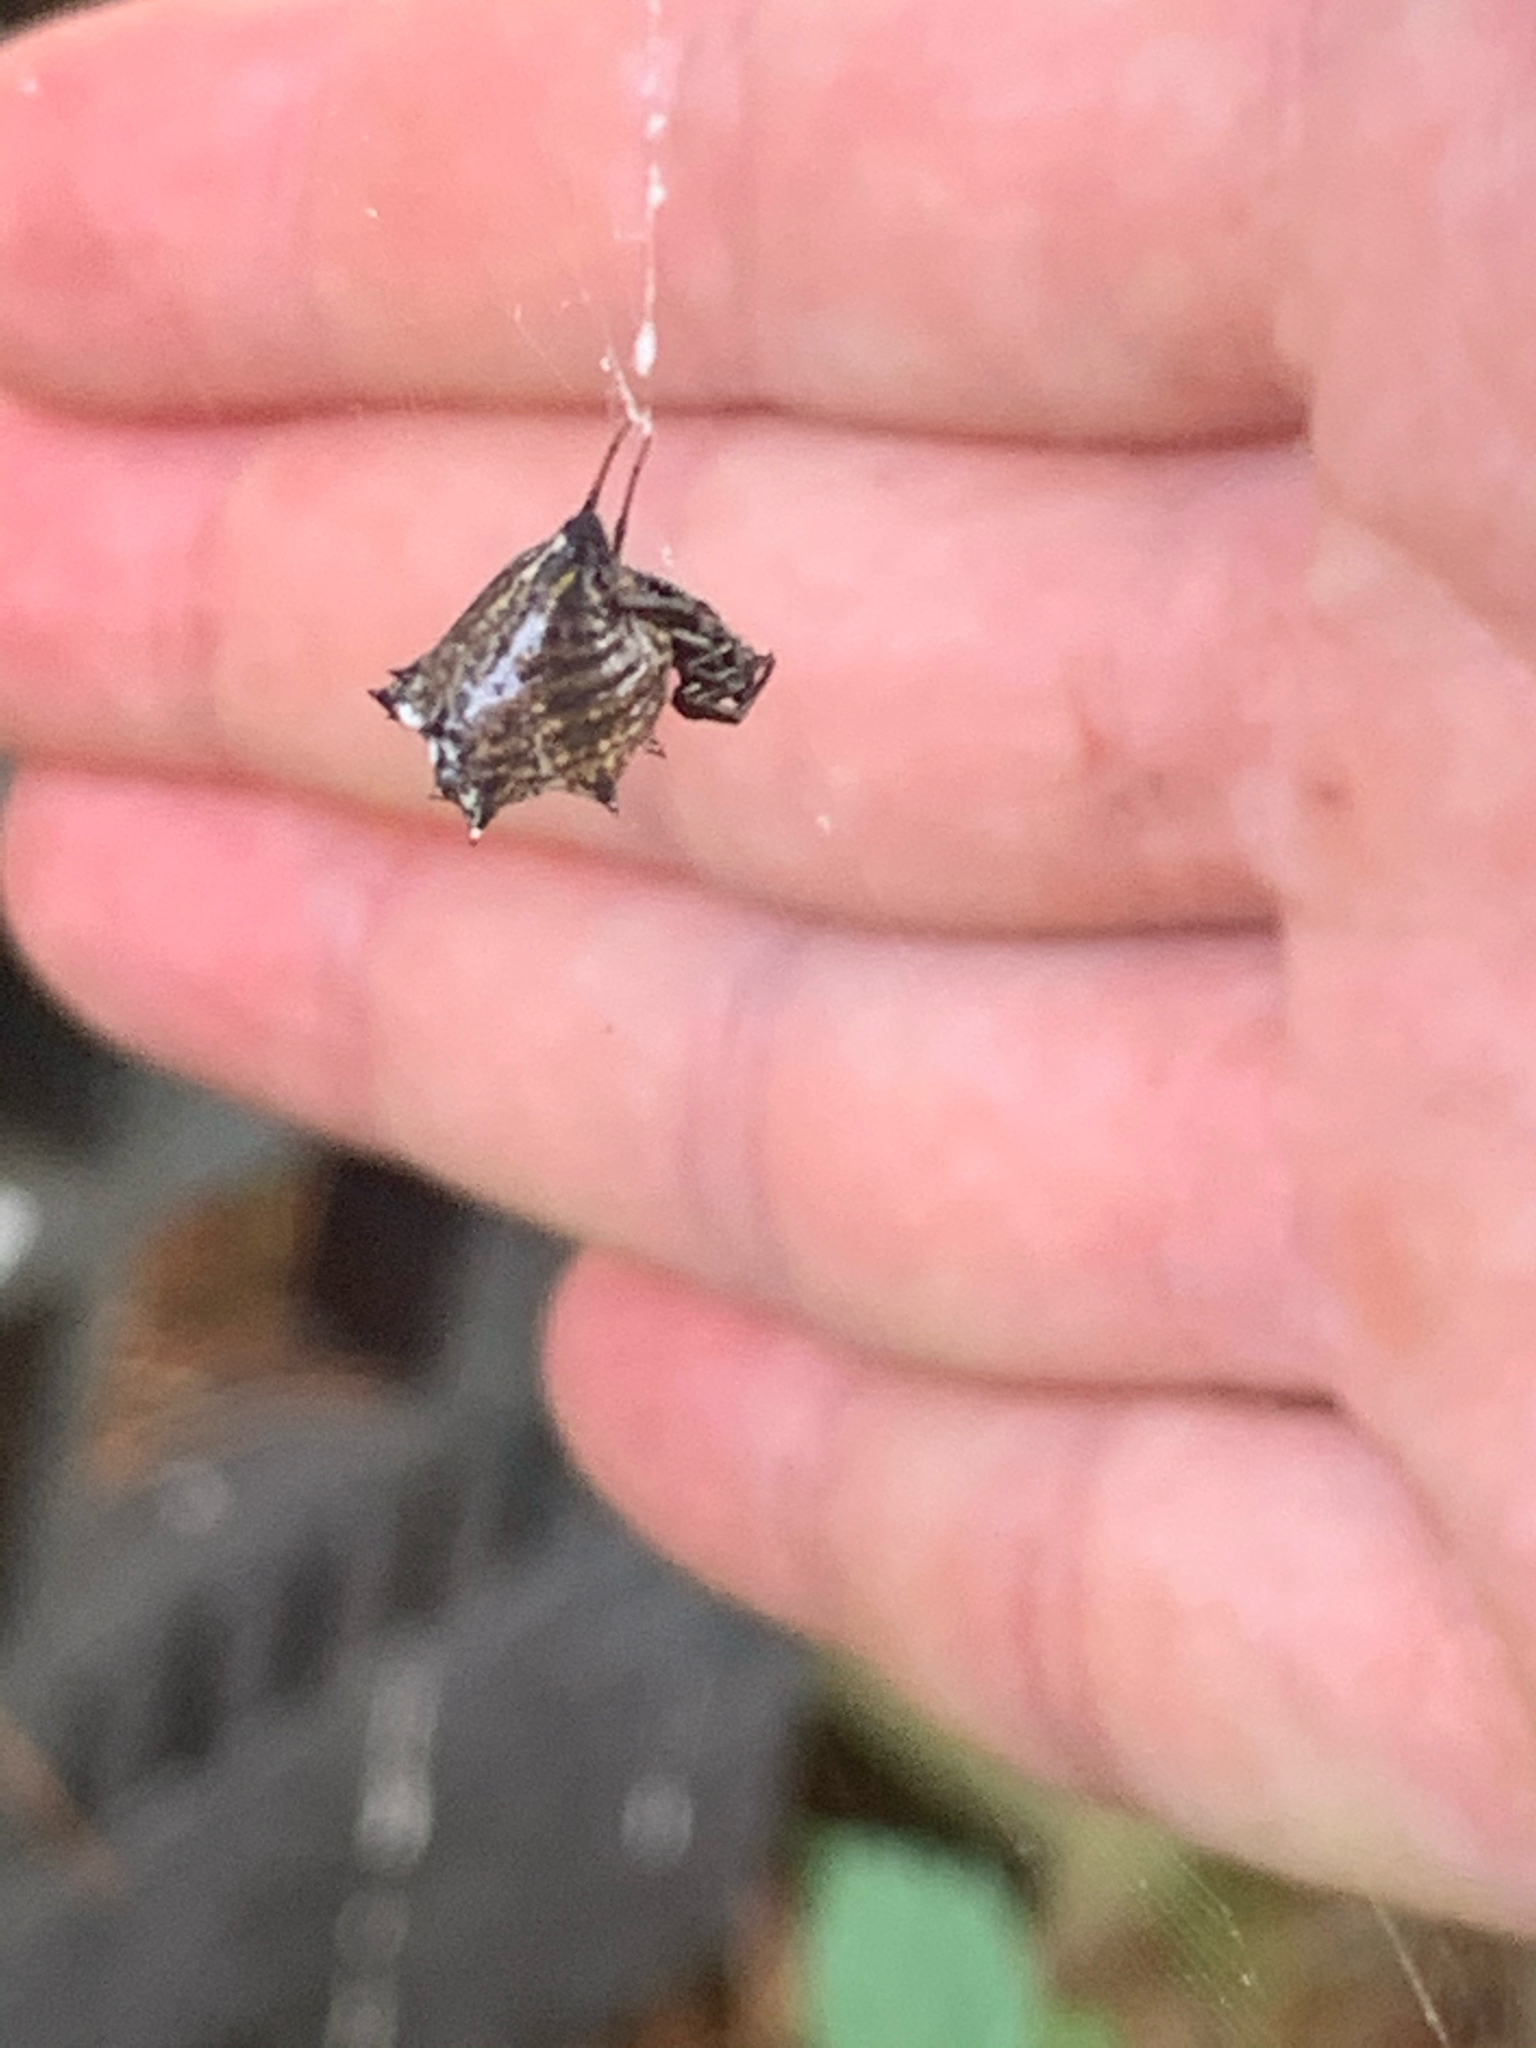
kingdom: Animalia
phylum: Arthropoda
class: Arachnida
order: Araneae
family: Araneidae
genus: Micrathena
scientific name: Micrathena gracilis
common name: Orb weavers
